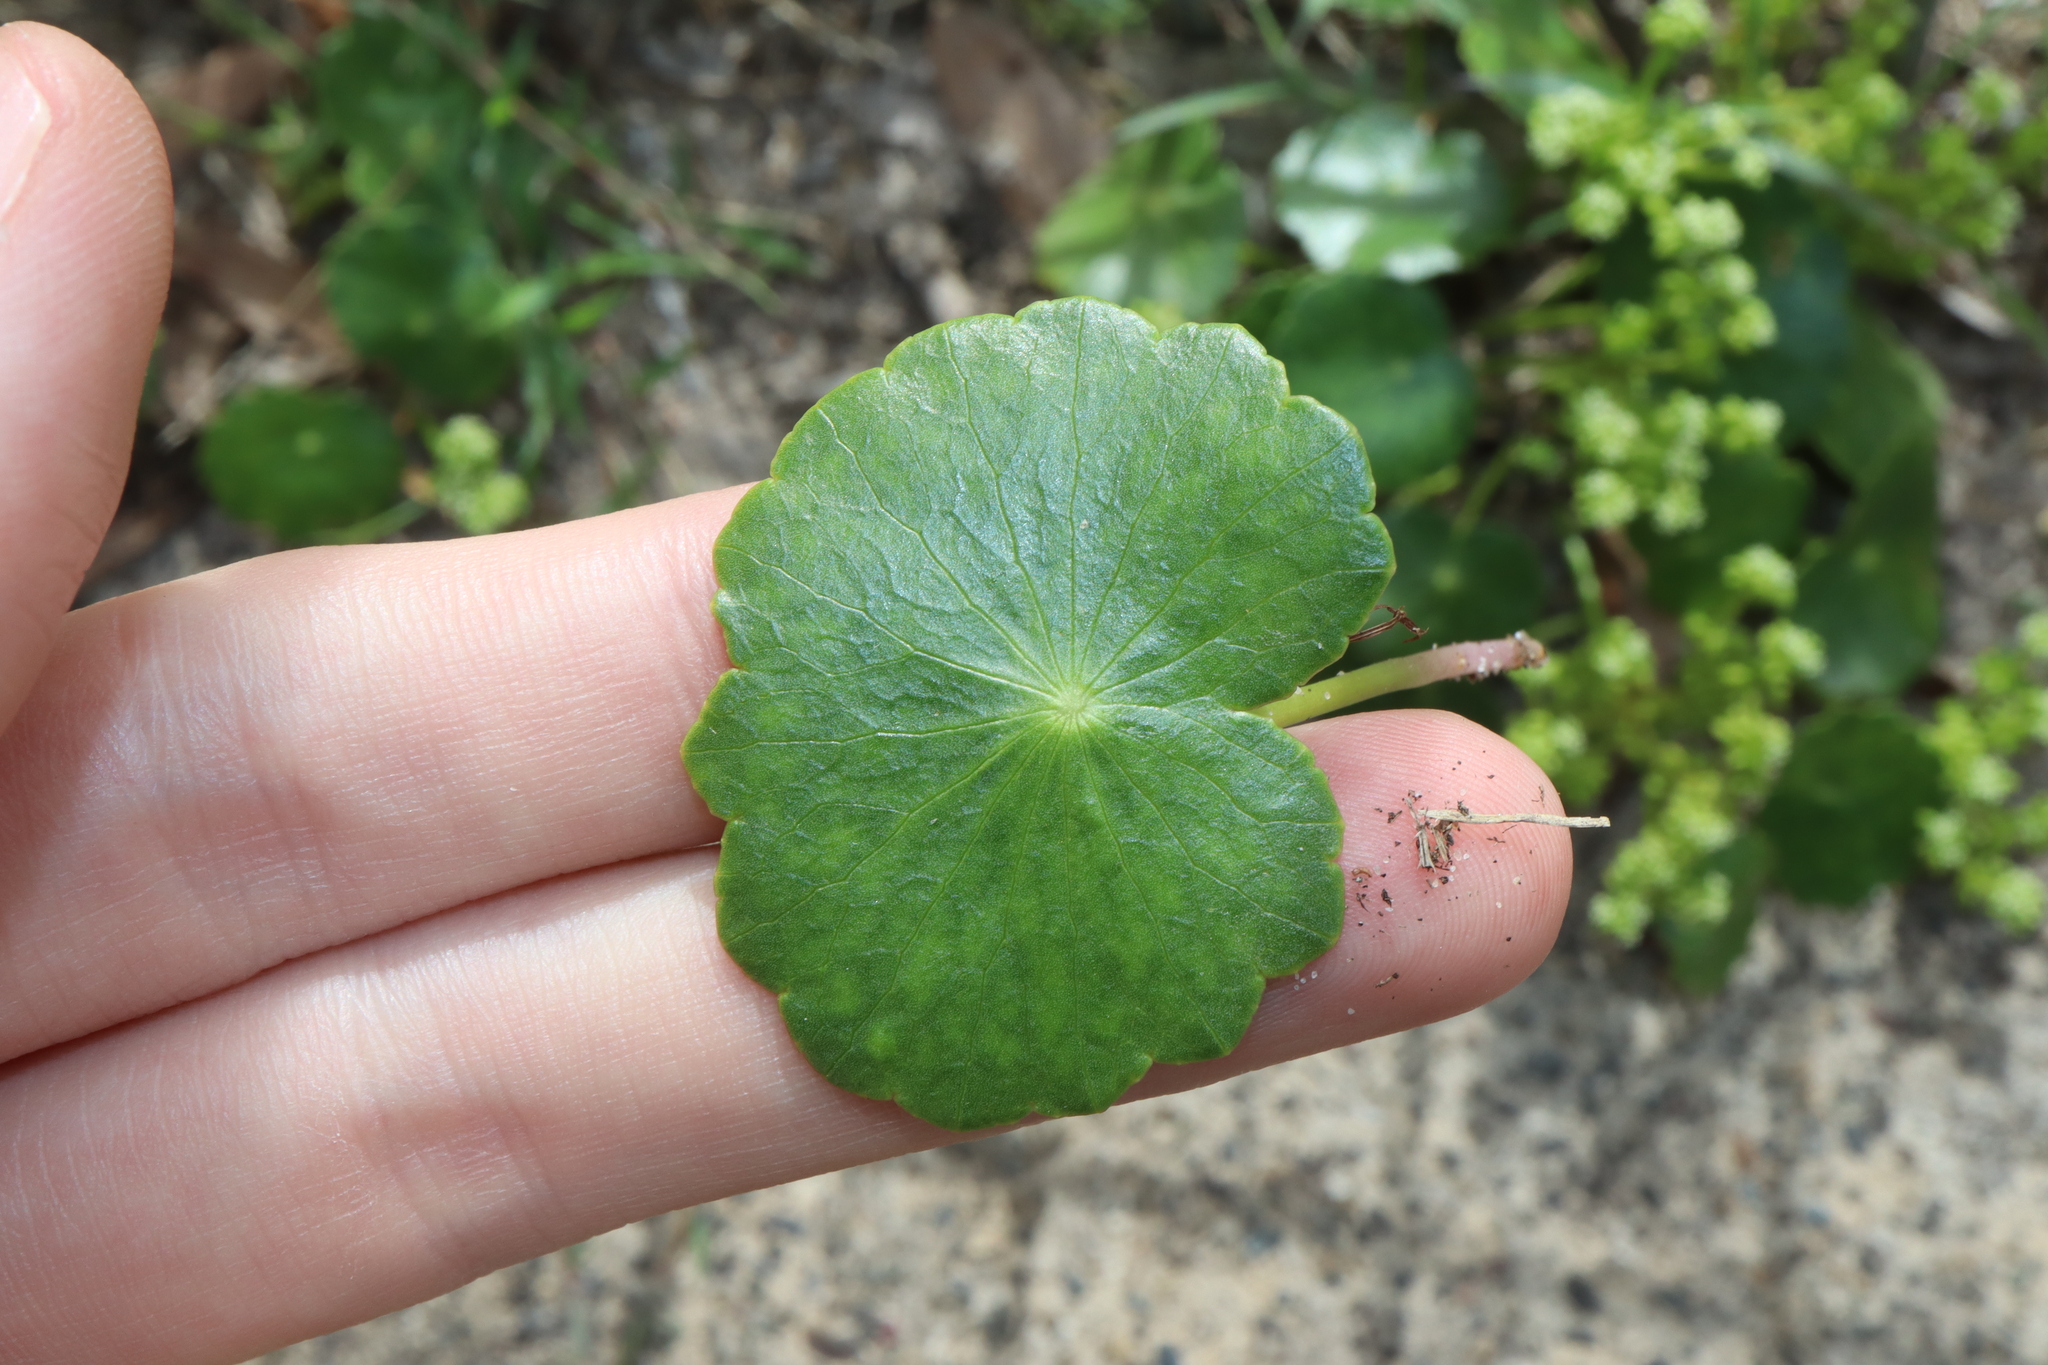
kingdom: Plantae
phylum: Tracheophyta
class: Magnoliopsida
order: Apiales
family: Araliaceae
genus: Hydrocotyle
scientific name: Hydrocotyle bonariensis
